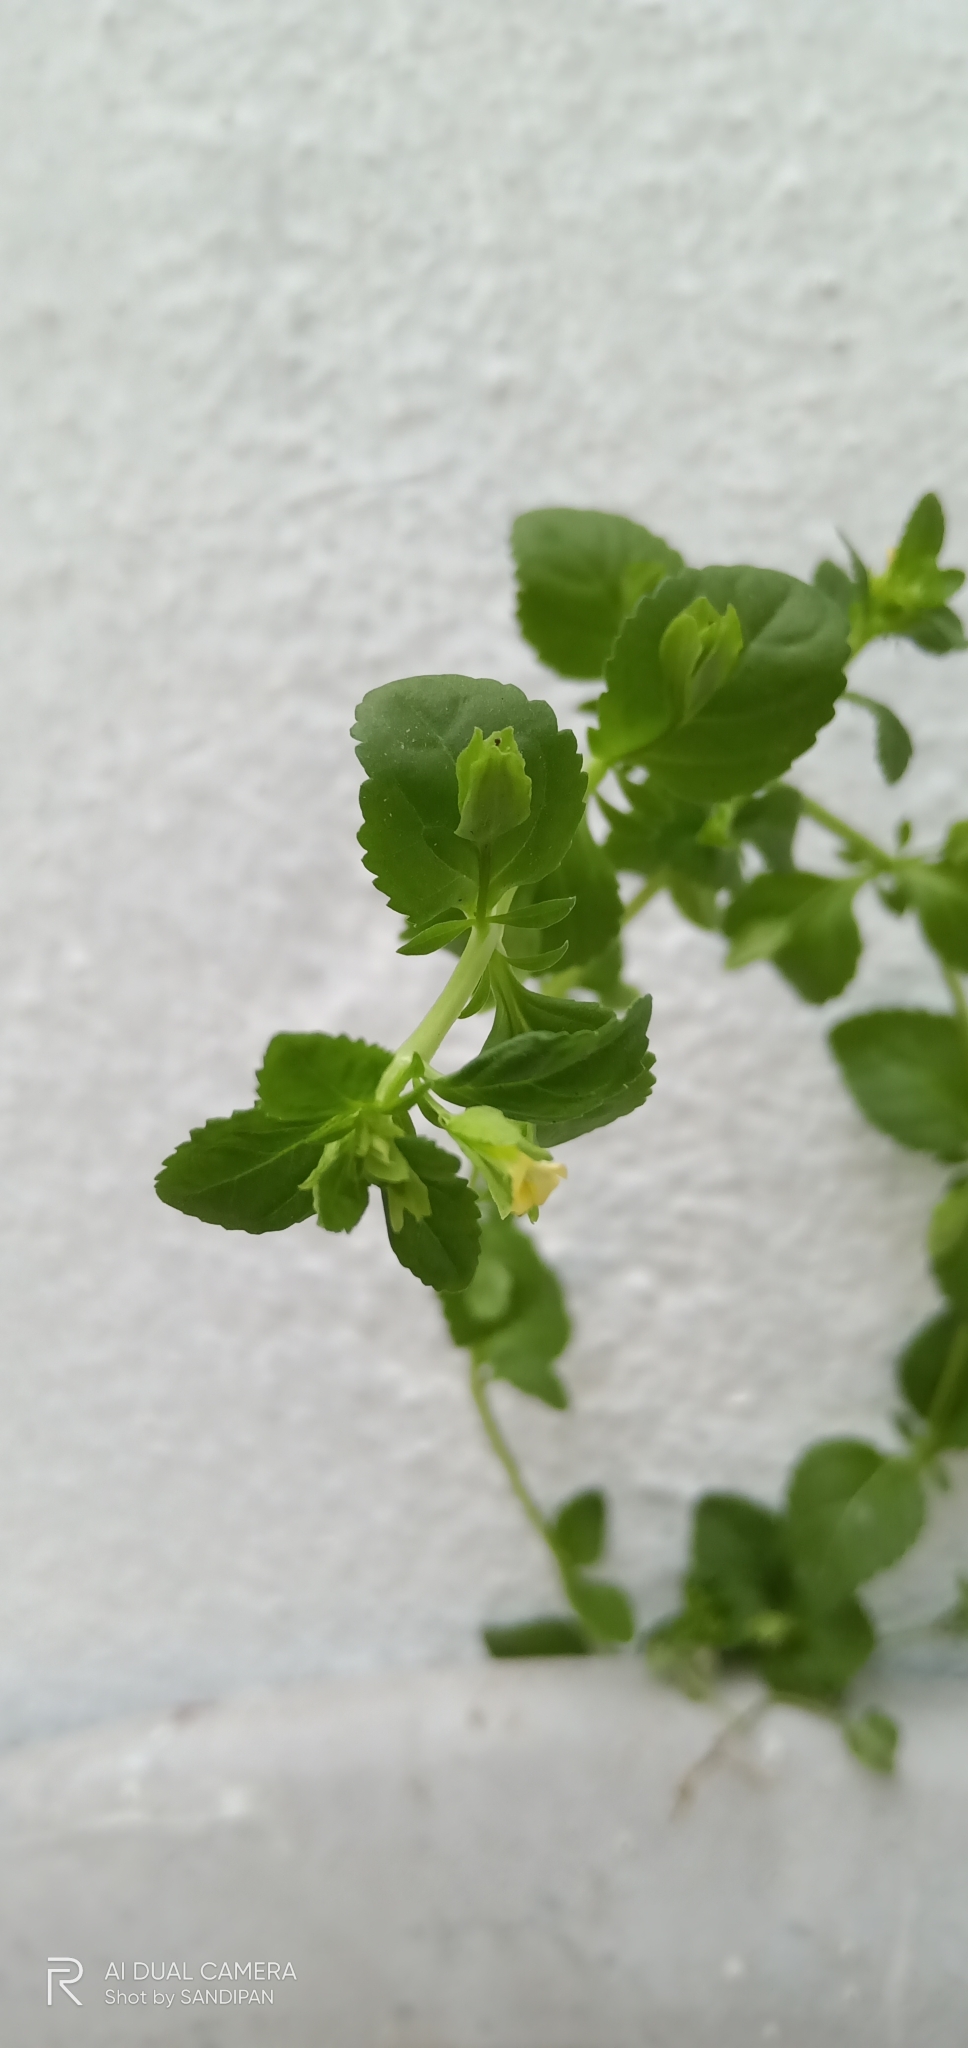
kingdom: Plantae
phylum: Tracheophyta
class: Magnoliopsida
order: Lamiales
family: Plantaginaceae
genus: Mecardonia
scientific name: Mecardonia procumbens
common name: Baby jump-up
